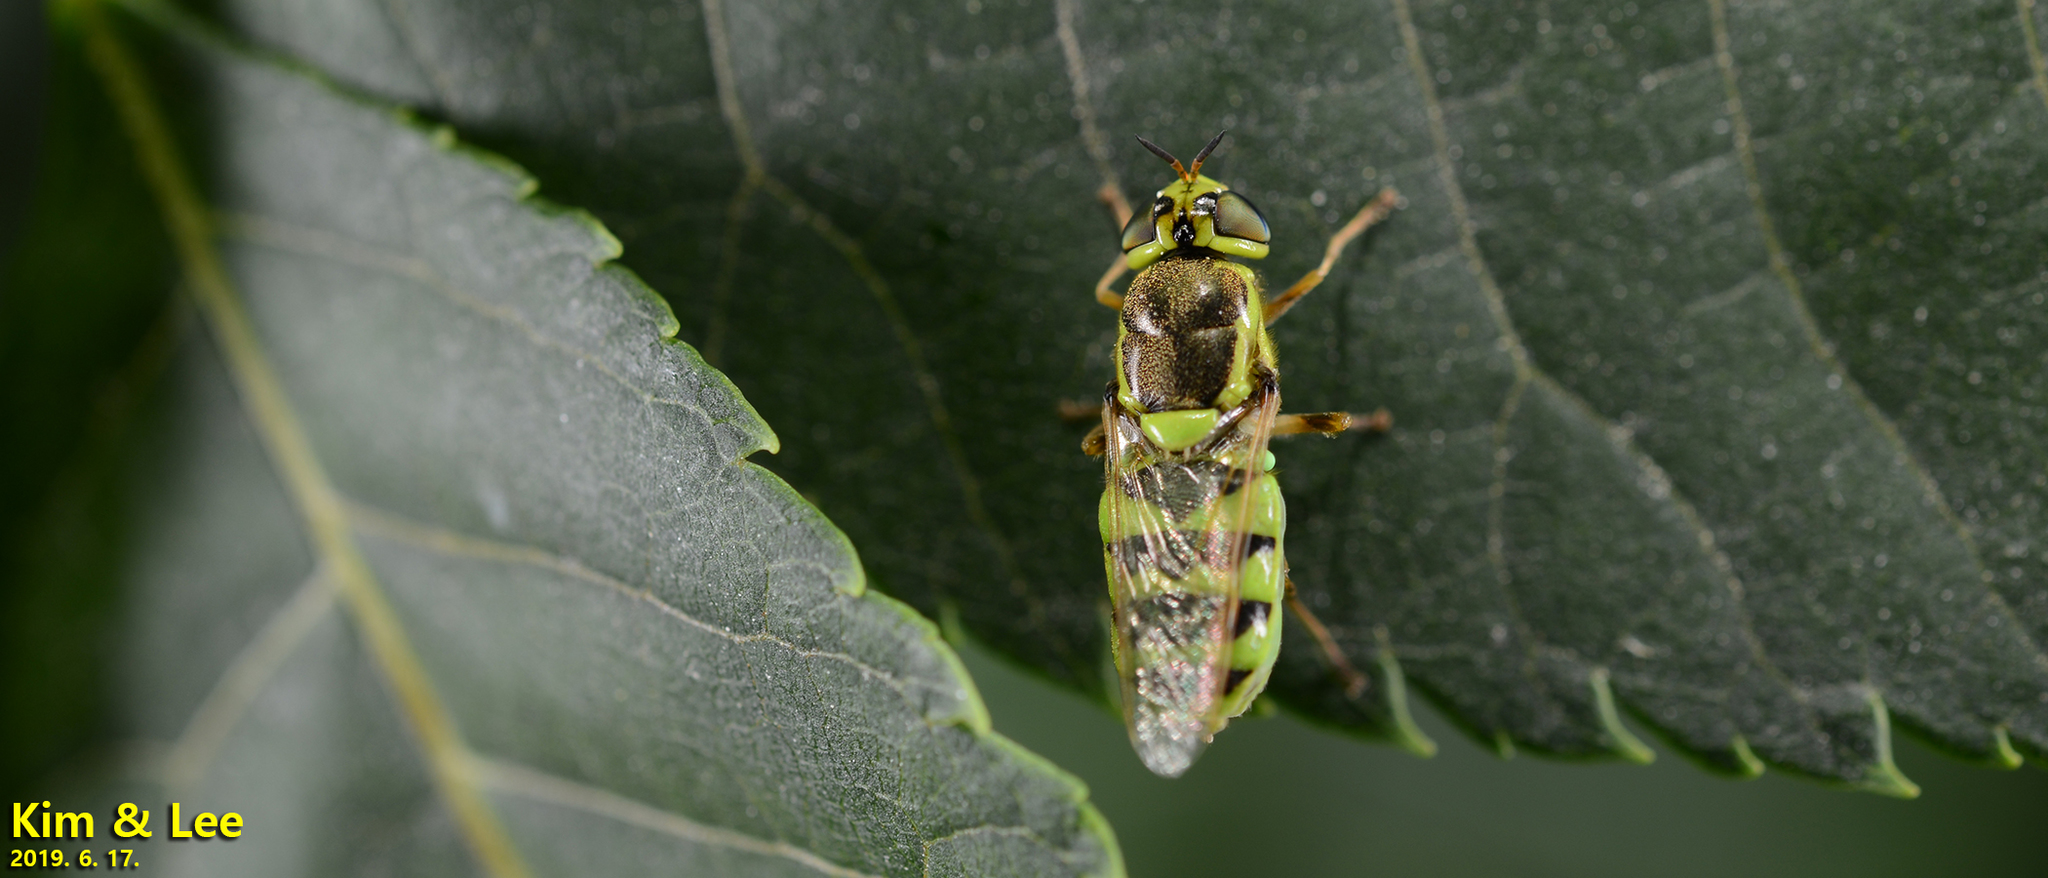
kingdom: Animalia
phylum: Arthropoda
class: Insecta
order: Diptera
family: Stratiomyidae
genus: Odontomyia
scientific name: Odontomyia garatas
